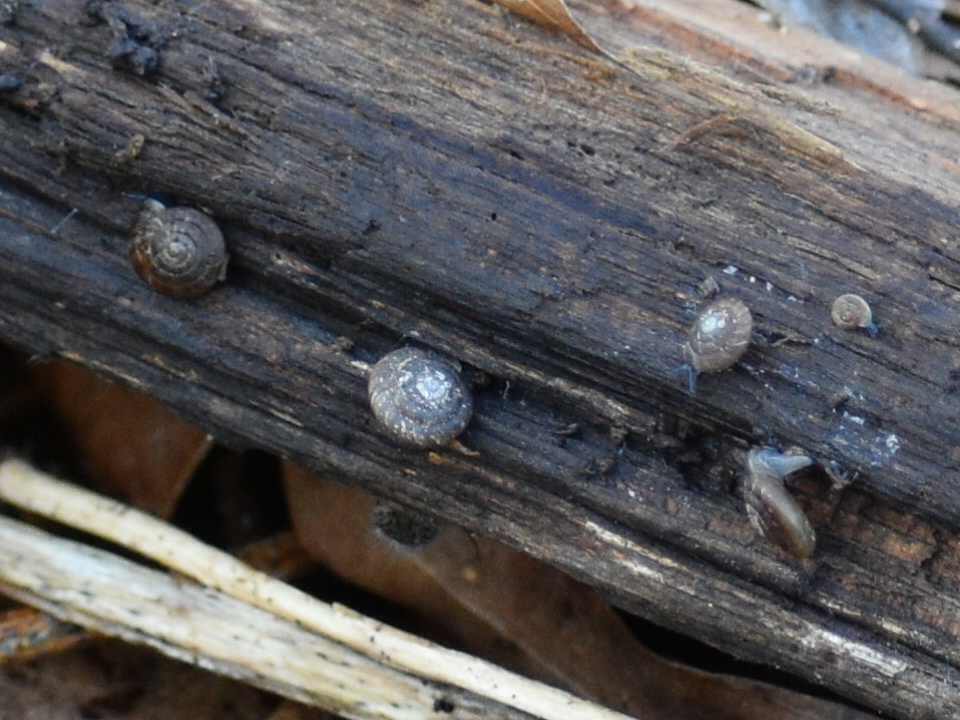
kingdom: Animalia
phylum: Mollusca
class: Gastropoda
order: Stylommatophora
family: Discidae
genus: Discus
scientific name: Discus rotundatus
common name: Rounded snail
